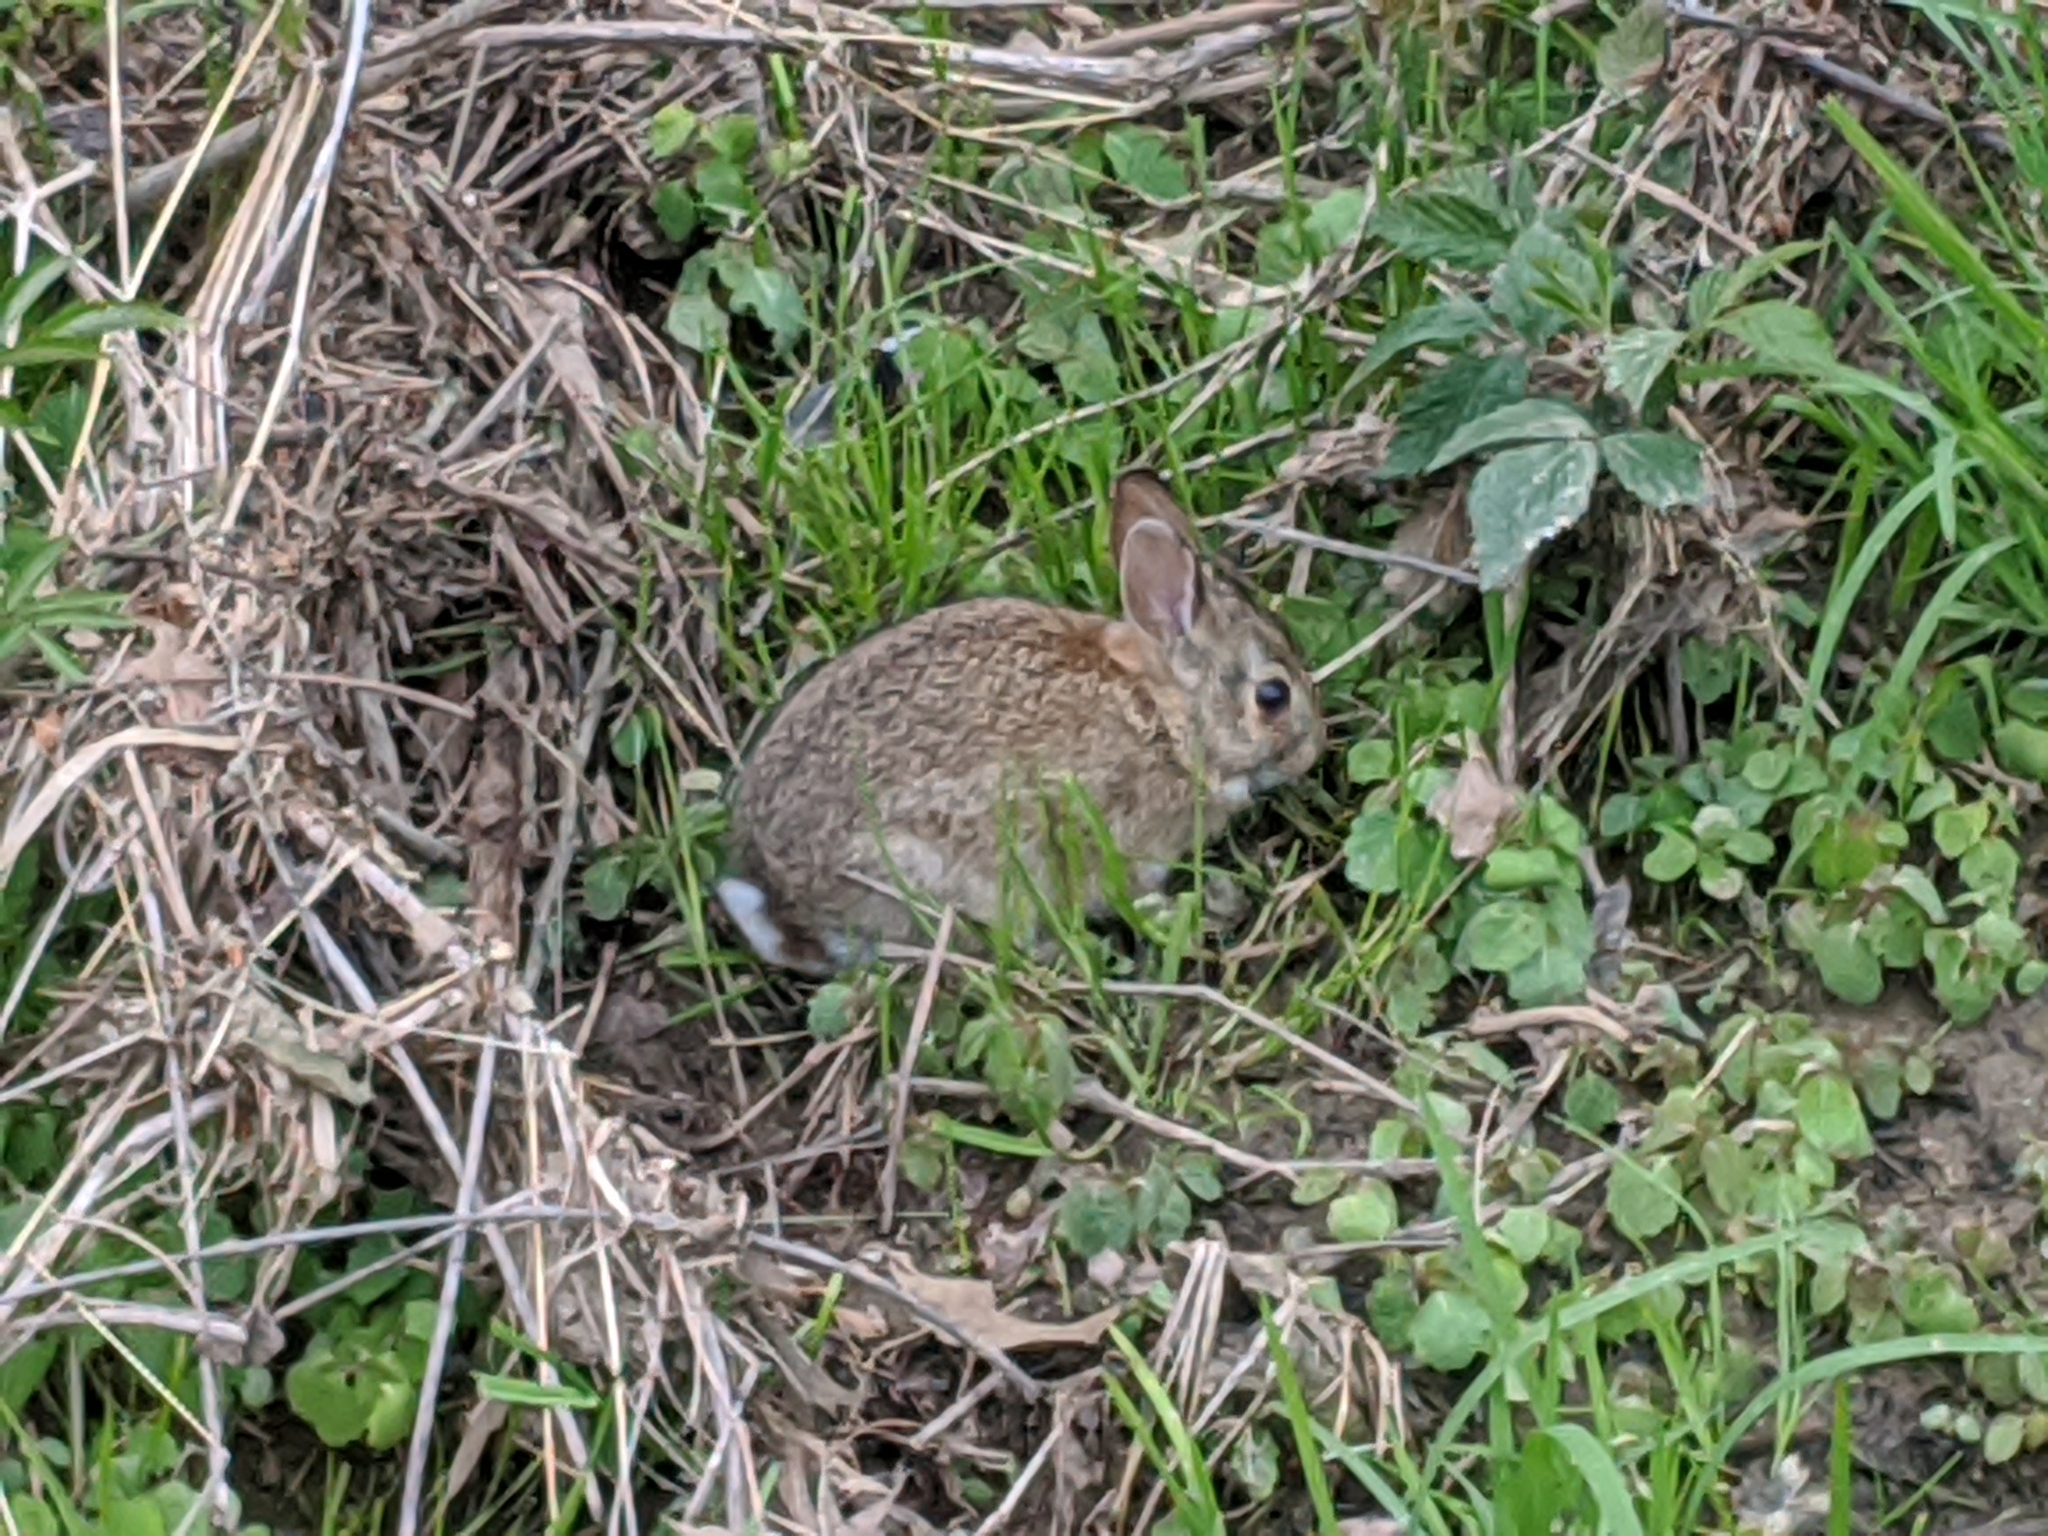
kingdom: Animalia
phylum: Chordata
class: Mammalia
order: Lagomorpha
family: Leporidae
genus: Sylvilagus
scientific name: Sylvilagus floridanus
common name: Eastern cottontail
